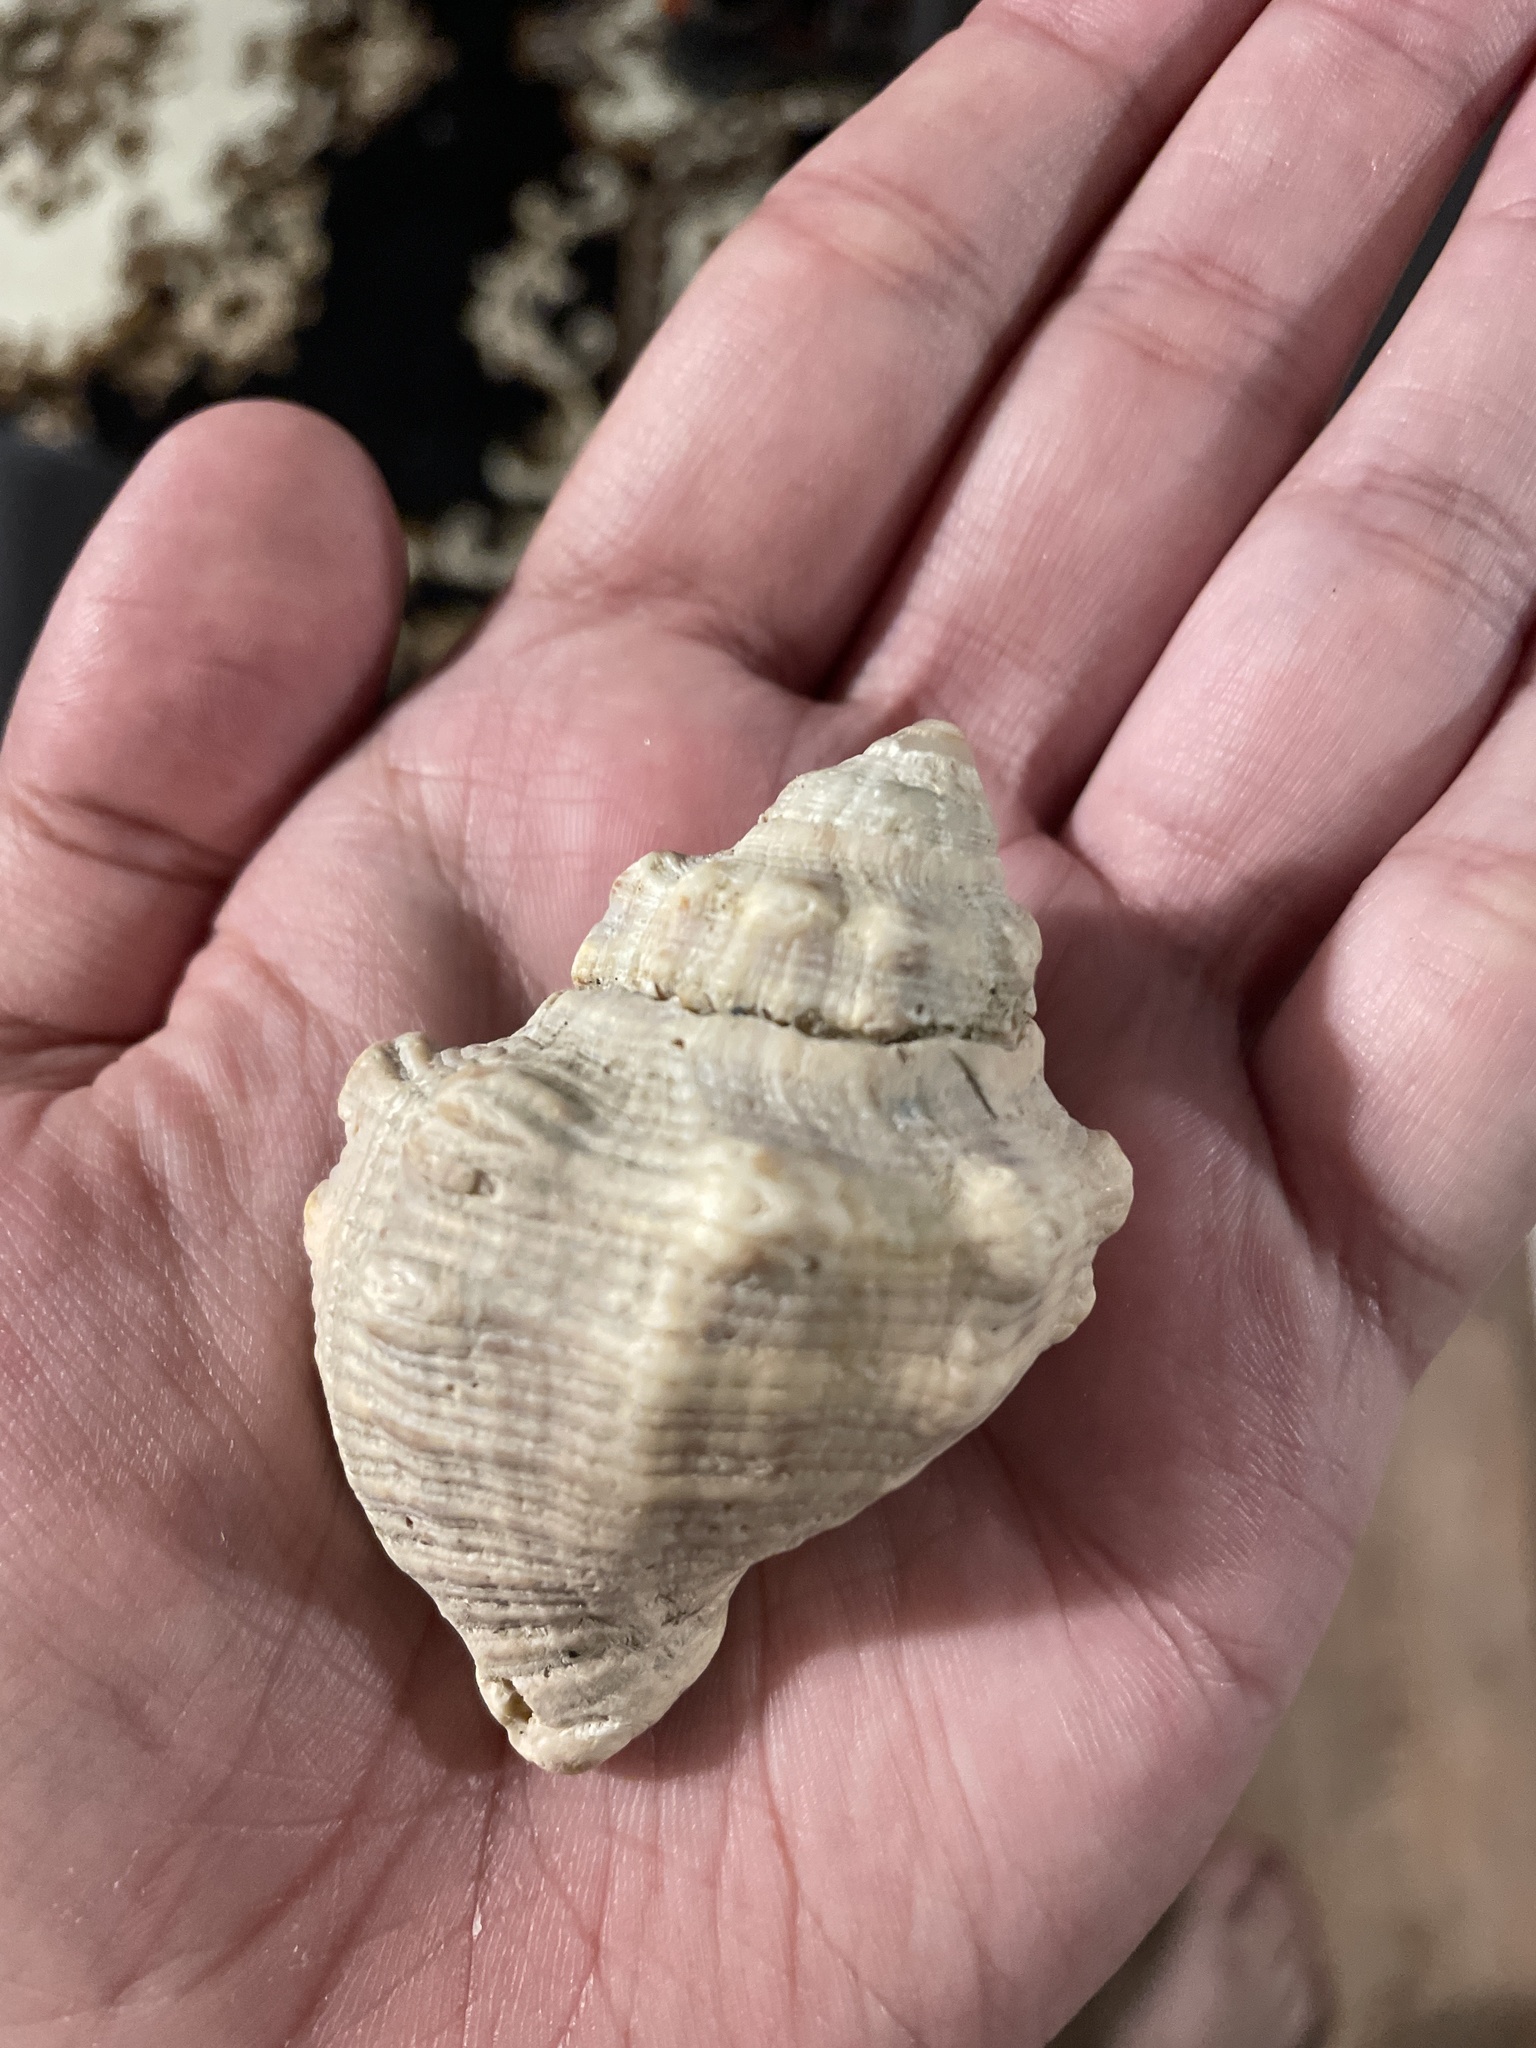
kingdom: Animalia
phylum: Mollusca
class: Gastropoda
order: Neogastropoda
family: Muricidae
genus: Stramonita
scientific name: Stramonita canaliculata
